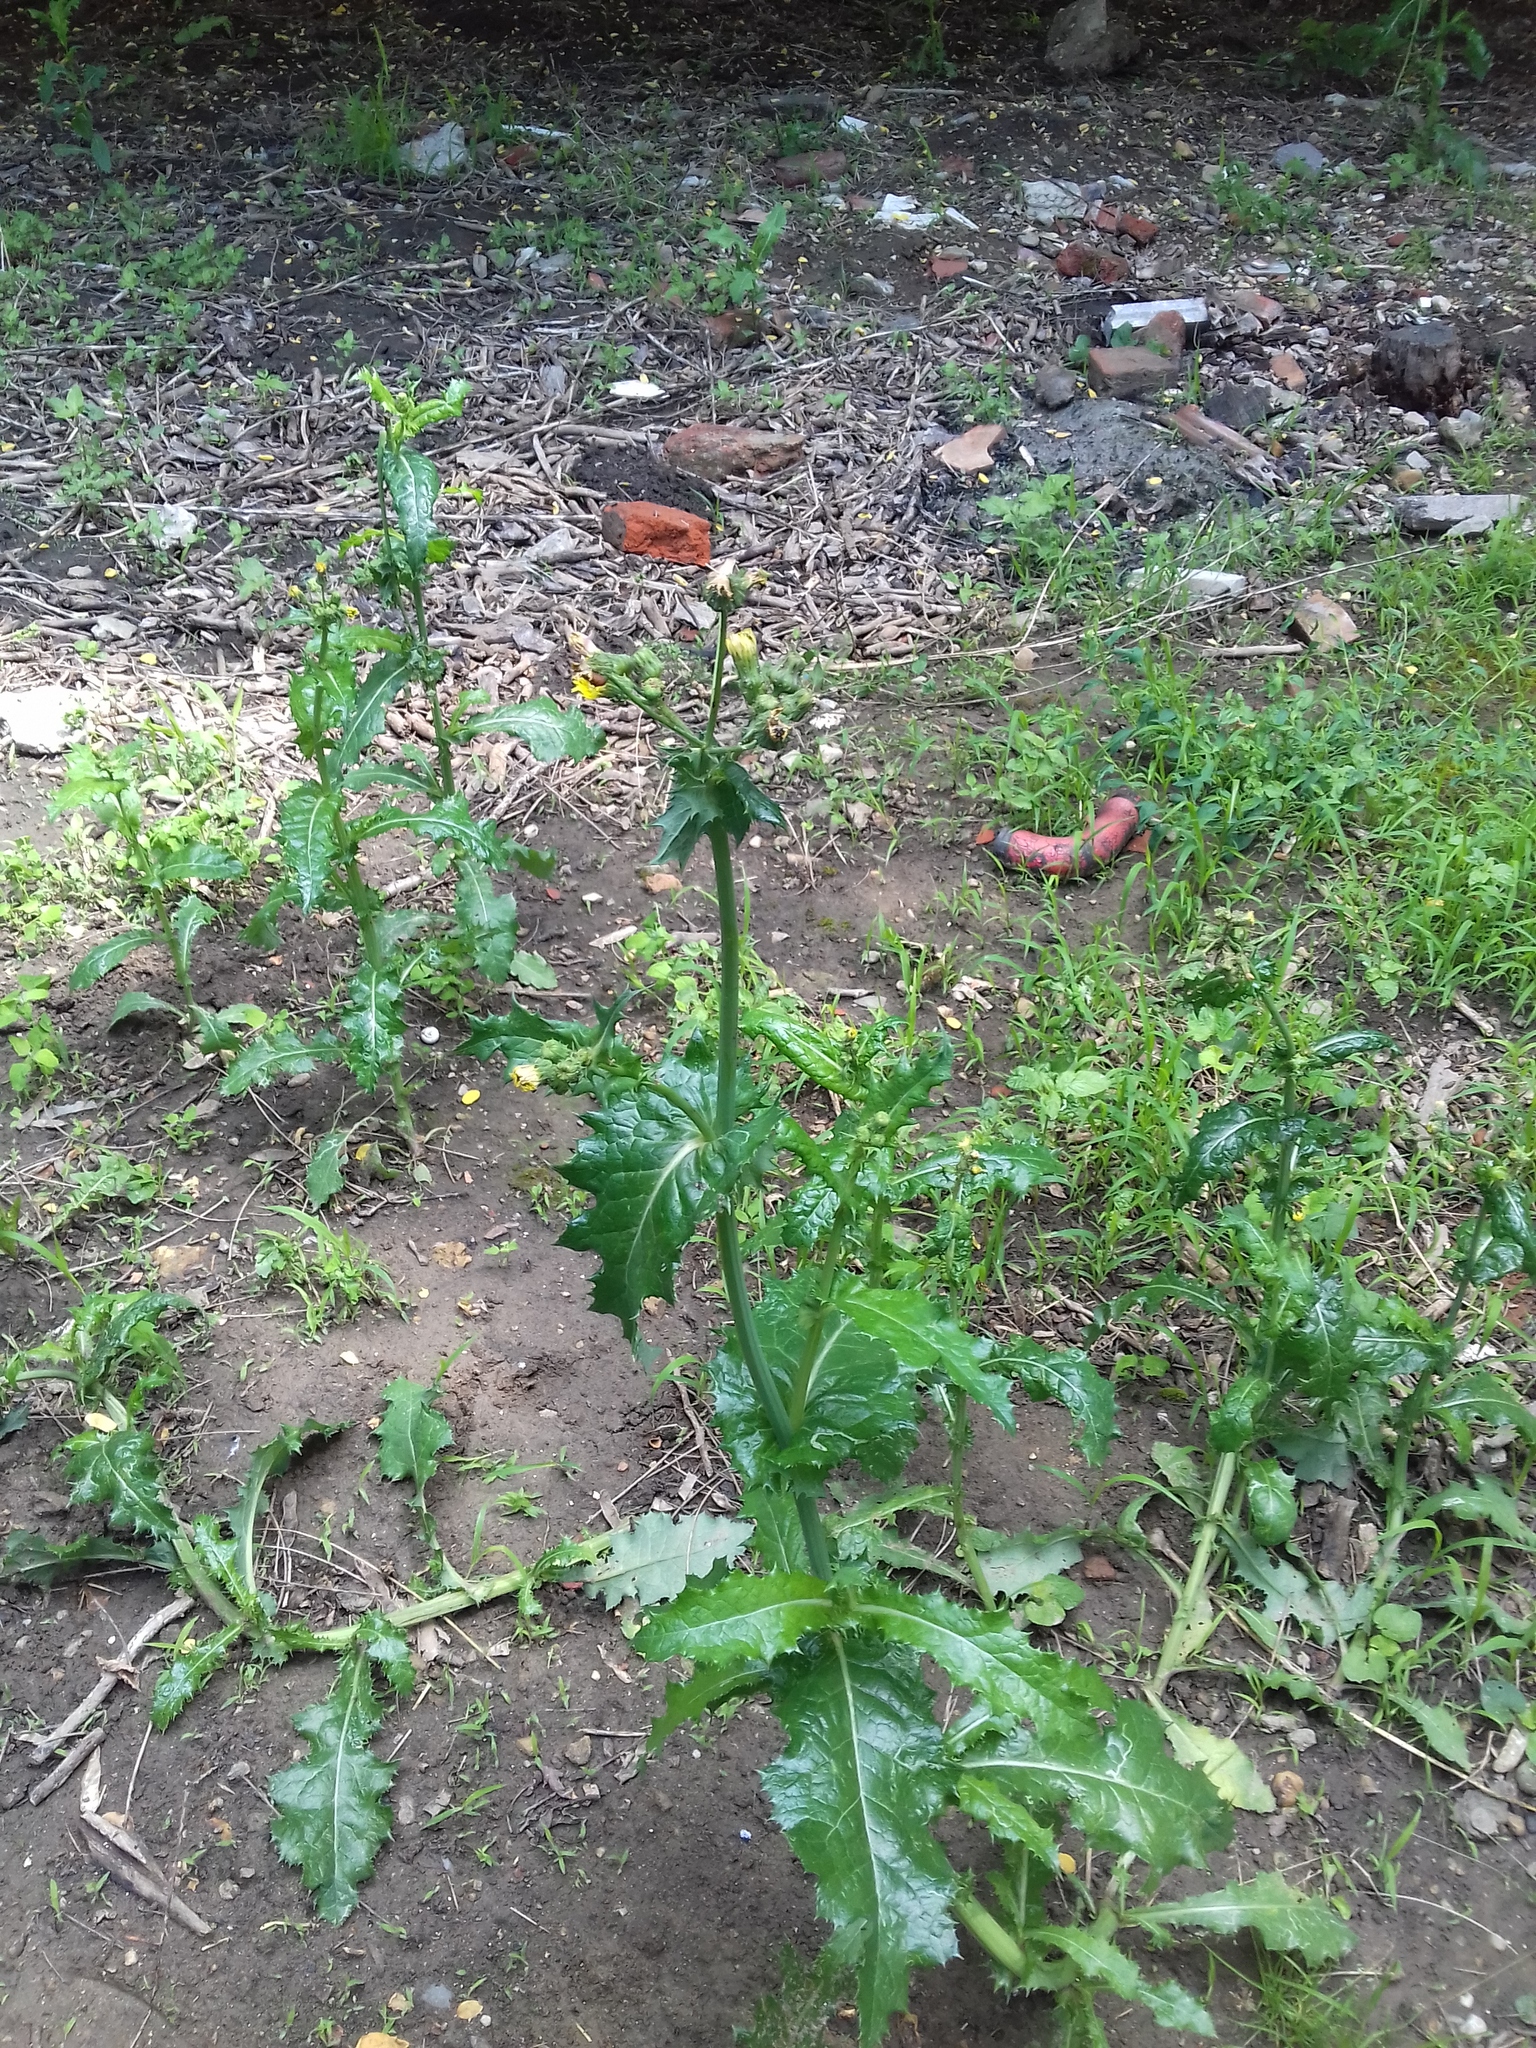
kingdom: Plantae
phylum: Tracheophyta
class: Magnoliopsida
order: Asterales
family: Asteraceae
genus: Sonchus
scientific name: Sonchus asper
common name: Prickly sow-thistle
